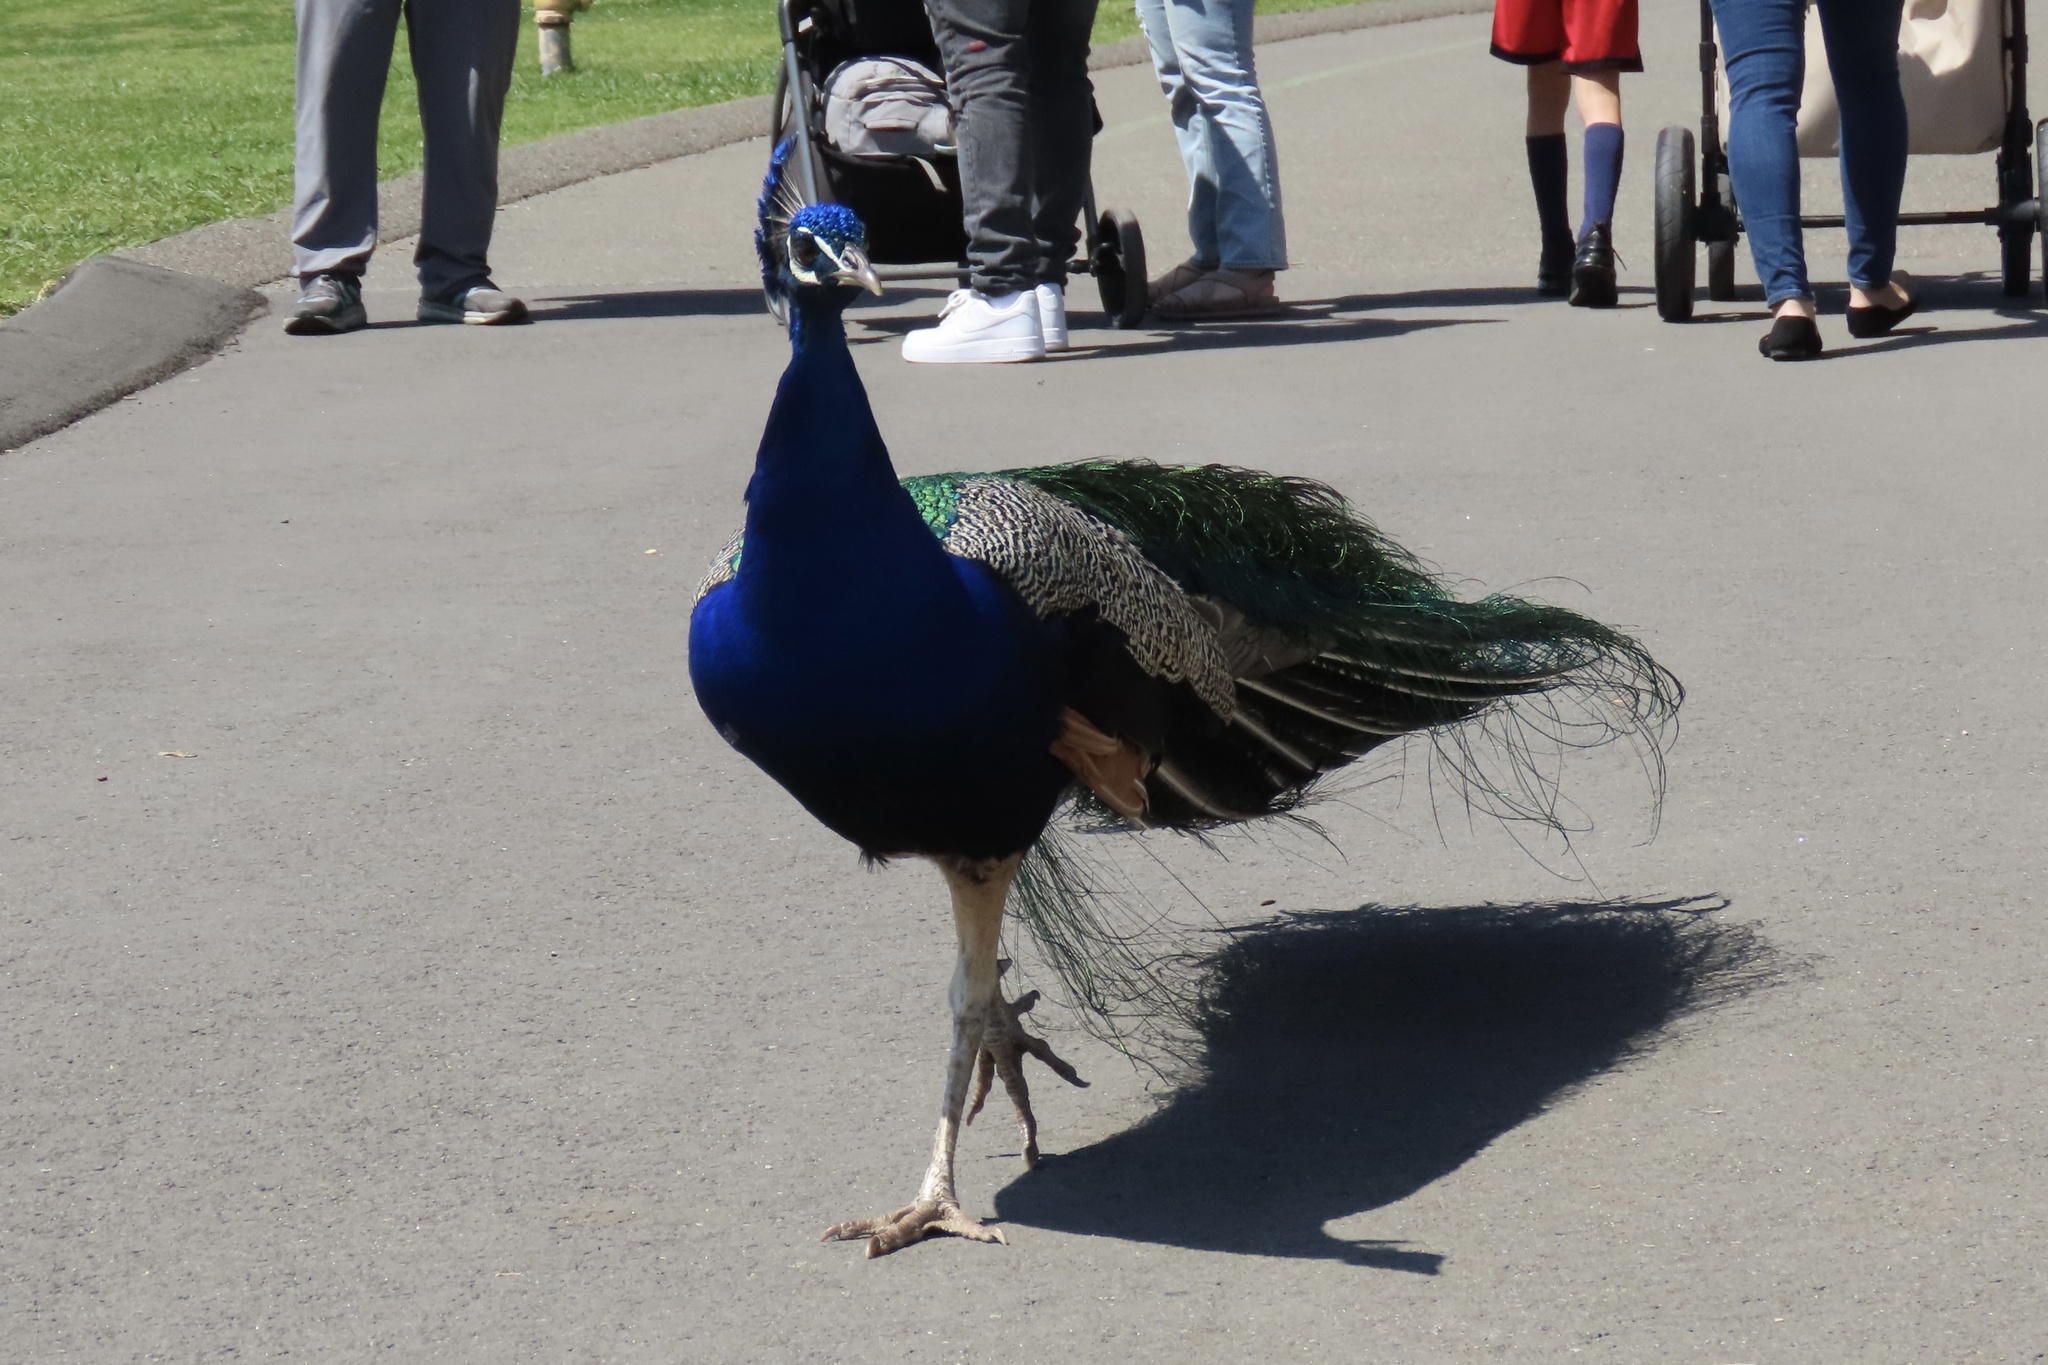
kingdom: Animalia
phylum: Chordata
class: Aves
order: Galliformes
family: Phasianidae
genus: Pavo
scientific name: Pavo cristatus
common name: Indian peafowl
